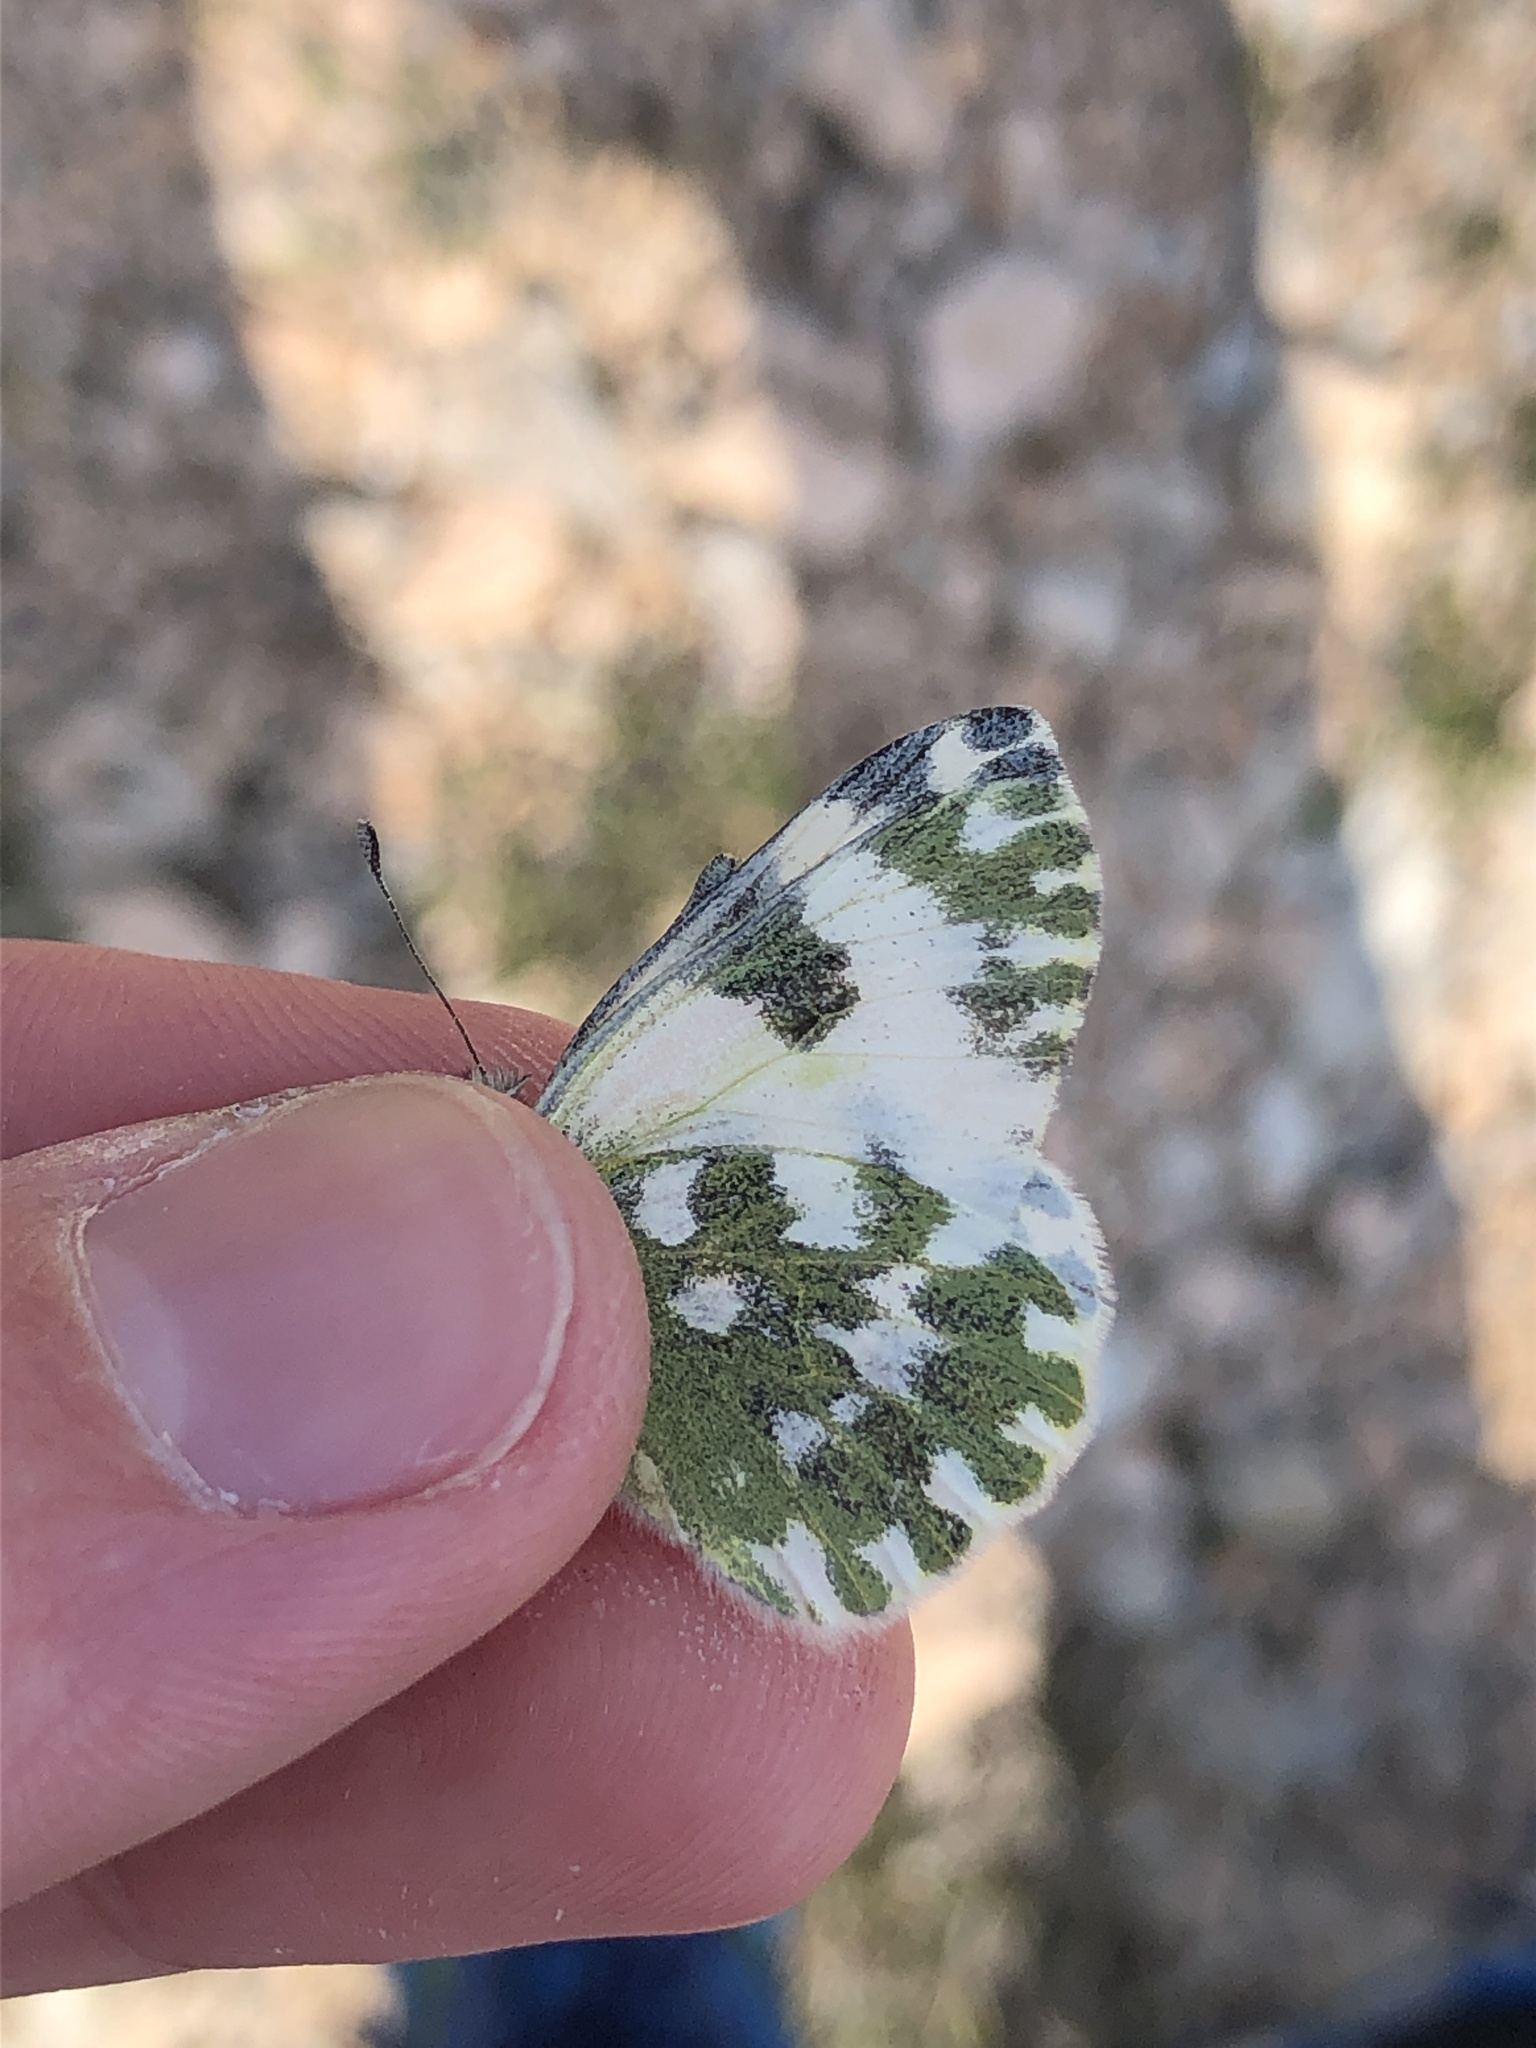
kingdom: Animalia
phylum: Arthropoda
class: Insecta
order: Lepidoptera
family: Pieridae
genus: Pontia
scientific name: Pontia edusa
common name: Eastern bath white
